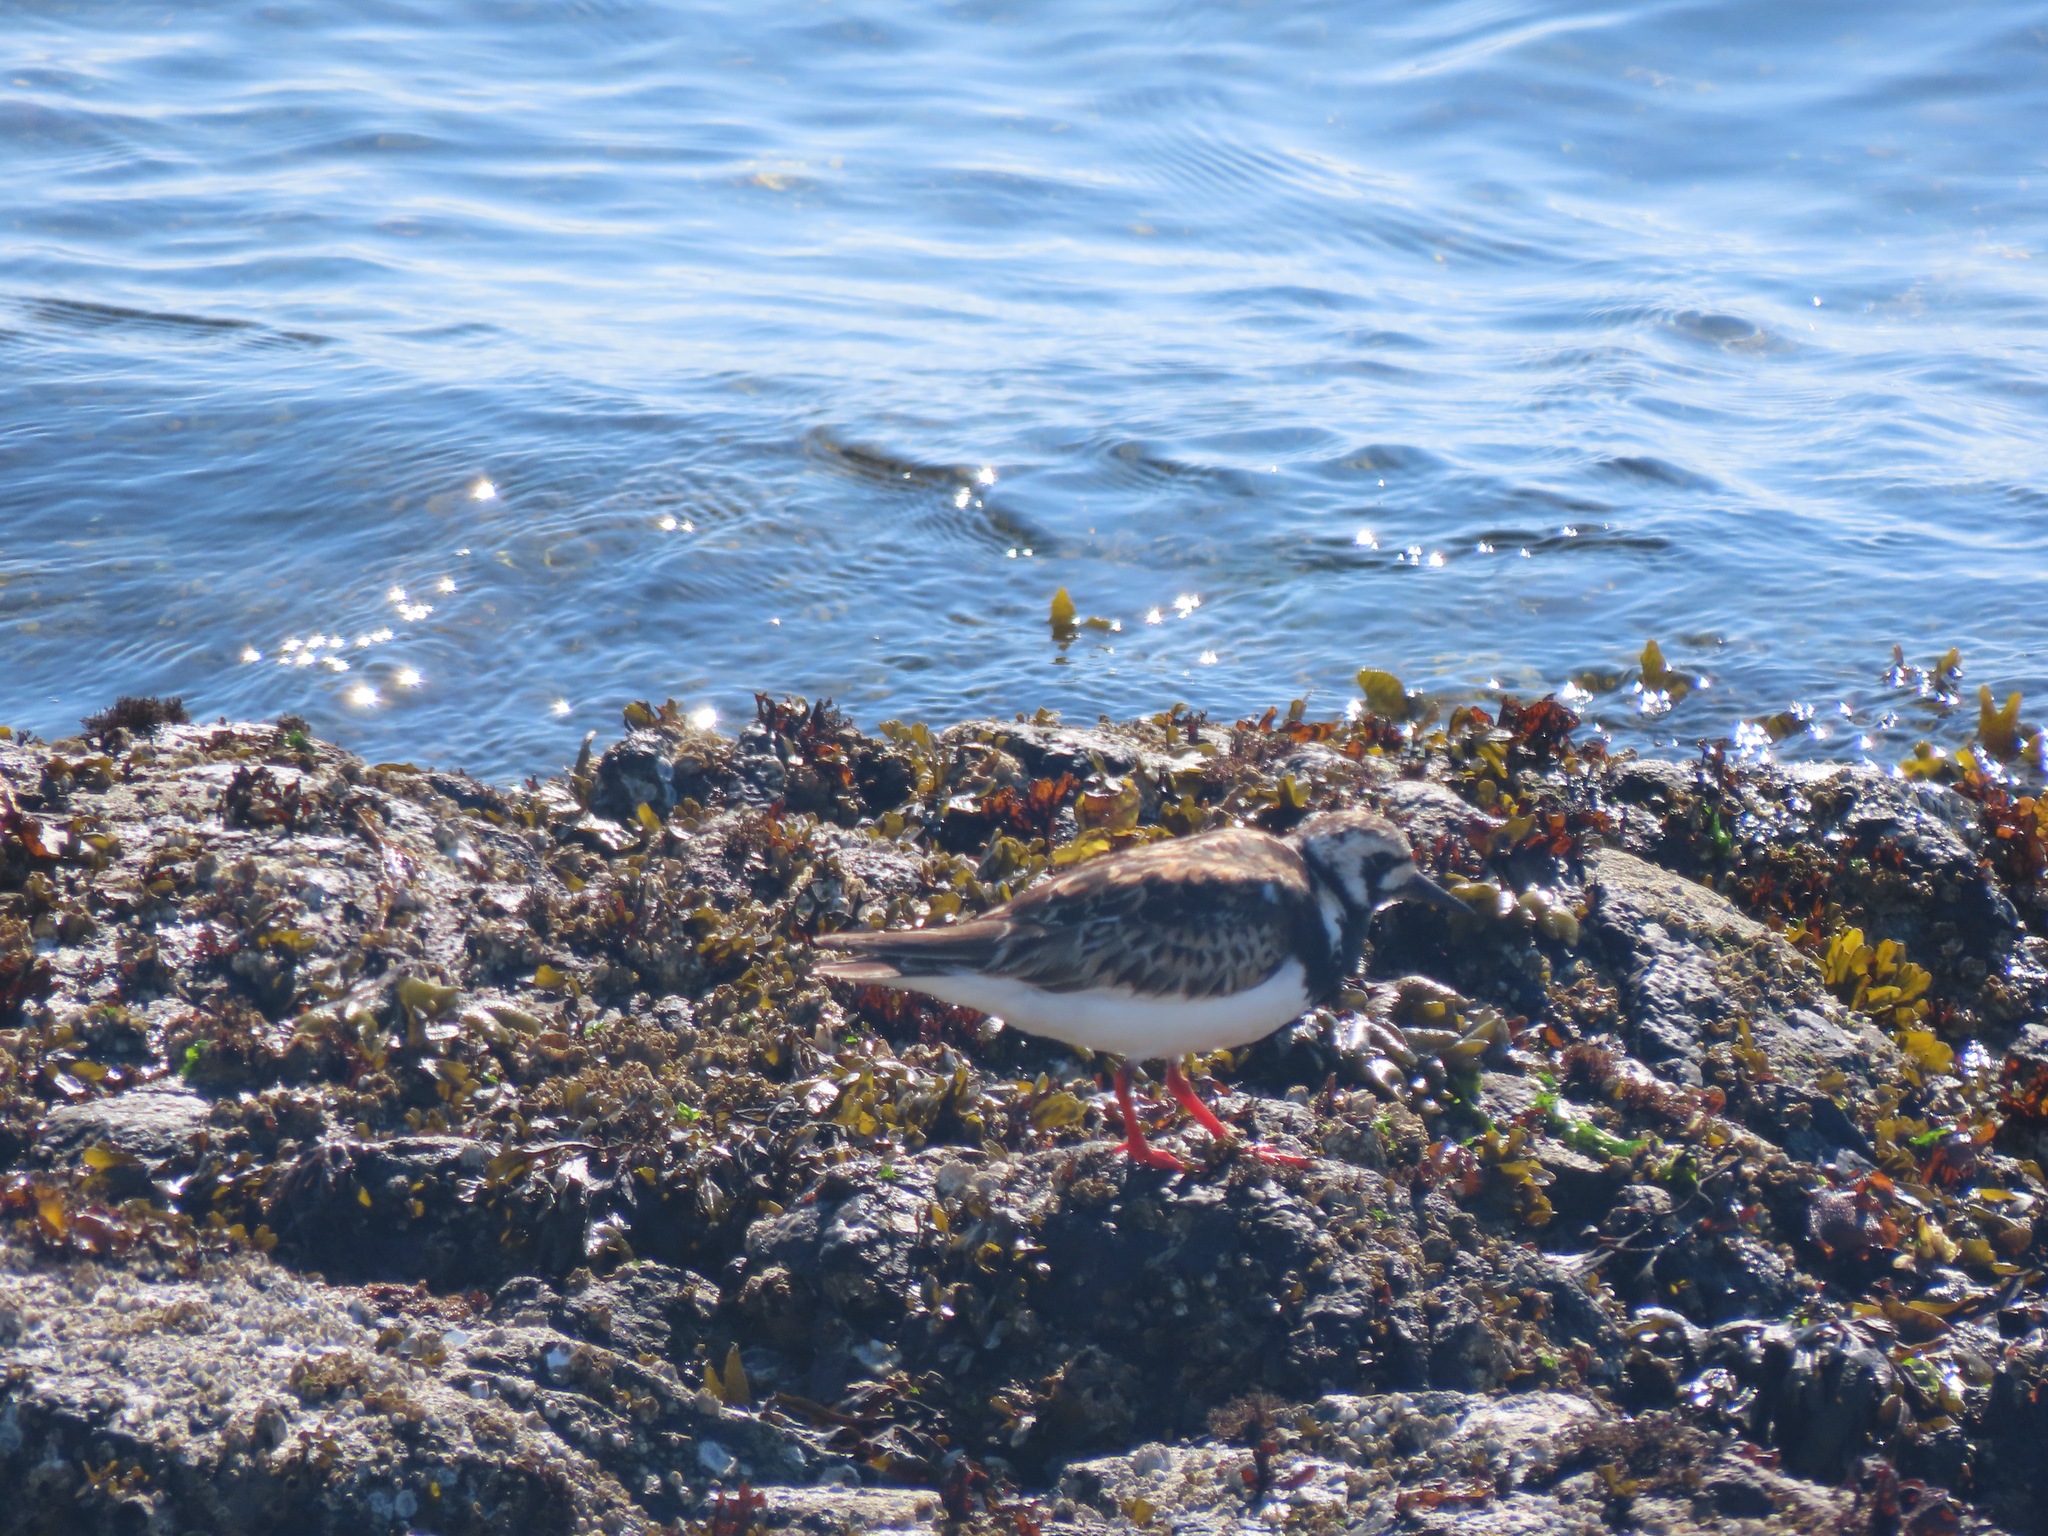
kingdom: Animalia
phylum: Chordata
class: Aves
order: Charadriiformes
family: Scolopacidae
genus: Arenaria
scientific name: Arenaria interpres
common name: Ruddy turnstone
